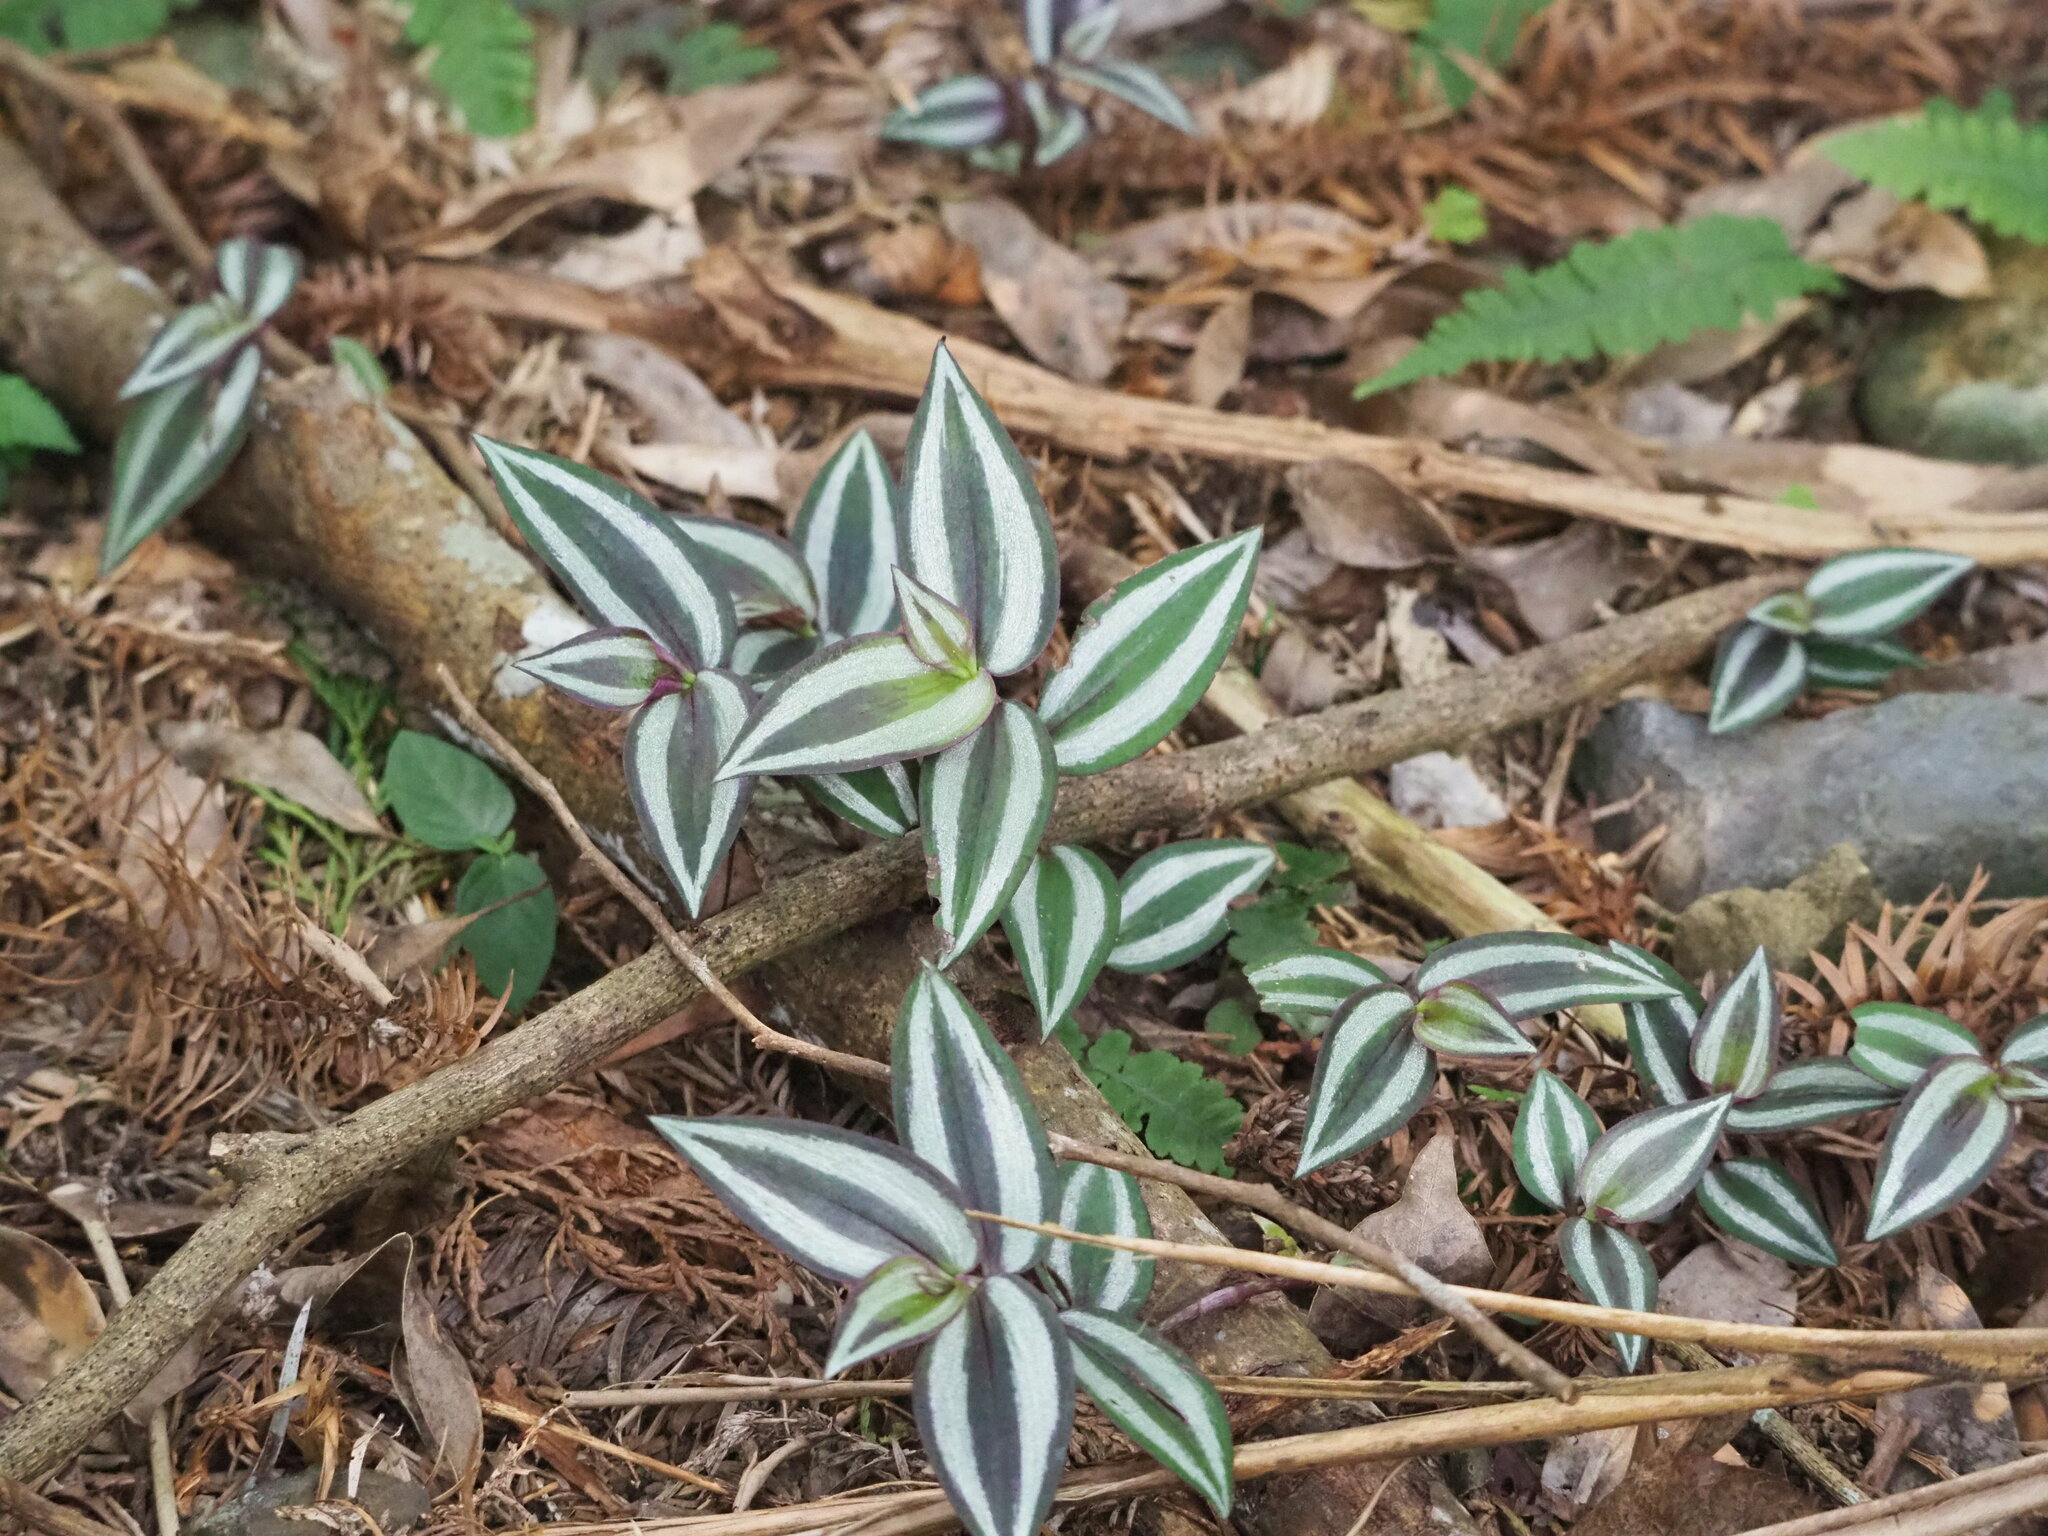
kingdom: Plantae
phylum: Tracheophyta
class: Liliopsida
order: Commelinales
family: Commelinaceae
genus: Tradescantia
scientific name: Tradescantia zebrina
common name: Inchplant
